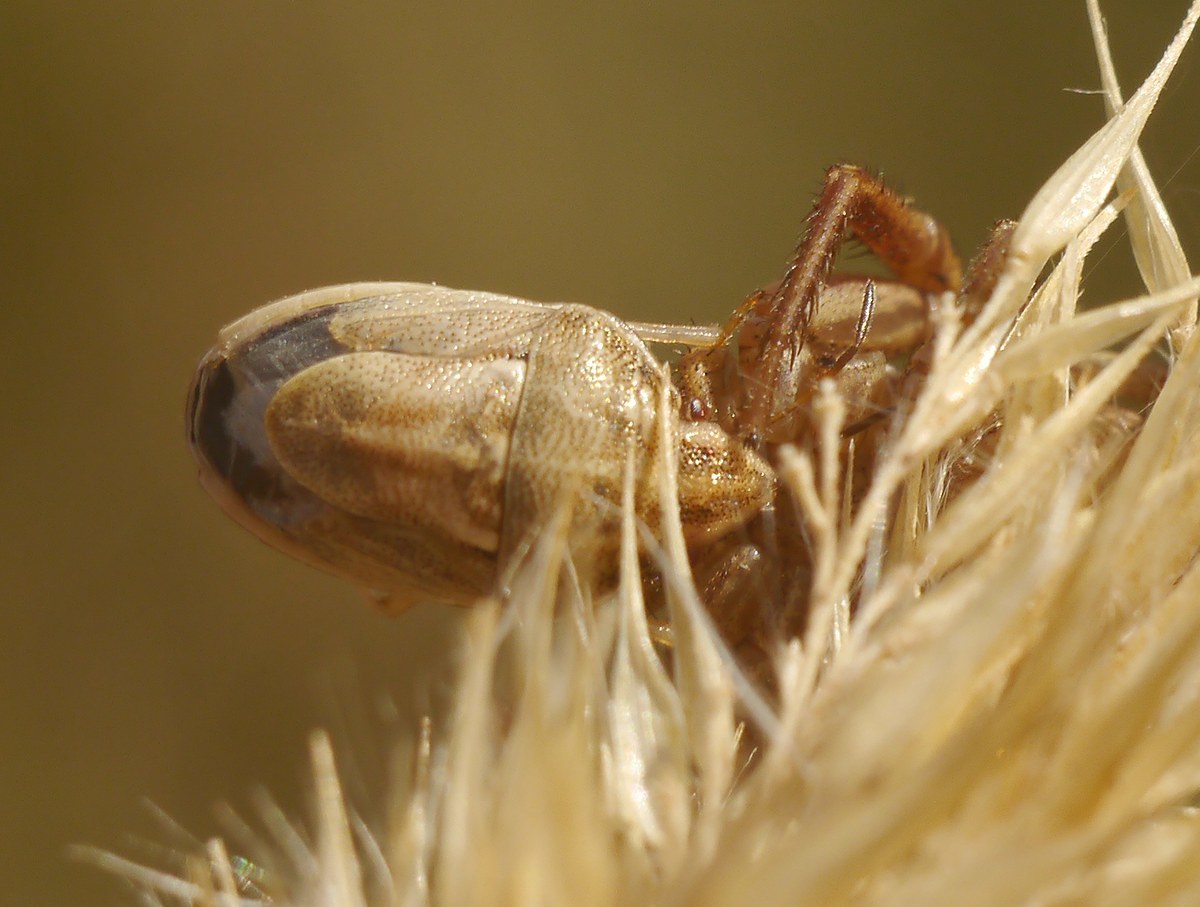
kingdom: Animalia
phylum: Arthropoda
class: Insecta
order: Hemiptera
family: Pentatomidae
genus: Neottiglossa
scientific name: Neottiglossa leporina
